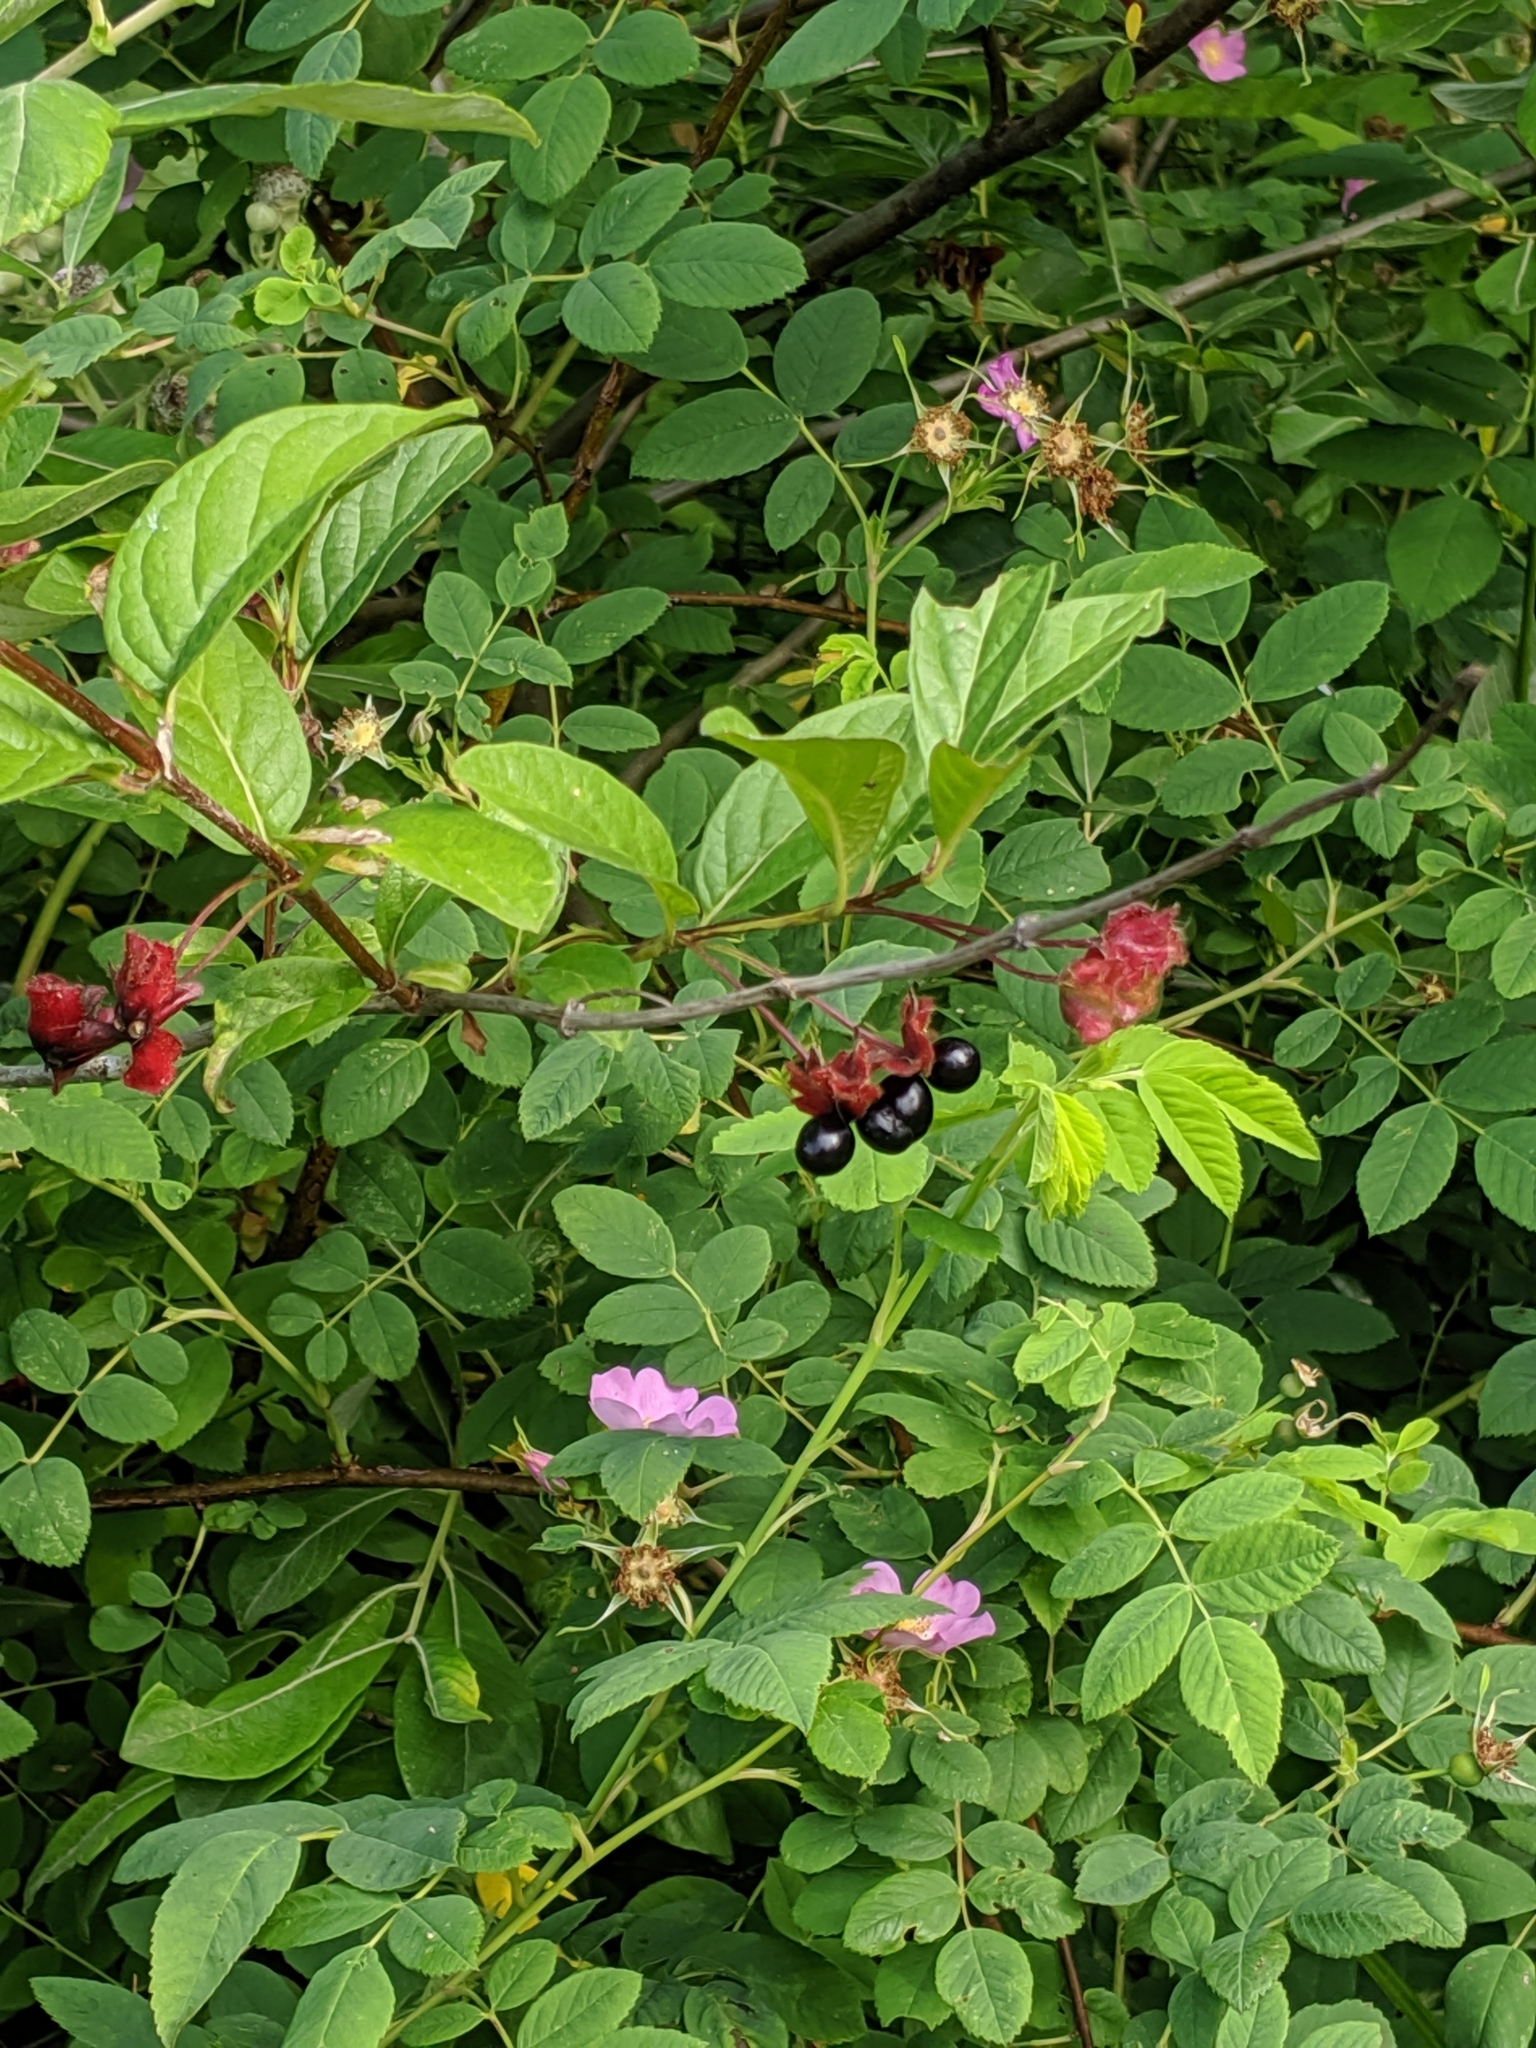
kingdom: Plantae
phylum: Tracheophyta
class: Magnoliopsida
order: Dipsacales
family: Caprifoliaceae
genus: Lonicera
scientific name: Lonicera involucrata
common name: Californian honeysuckle
